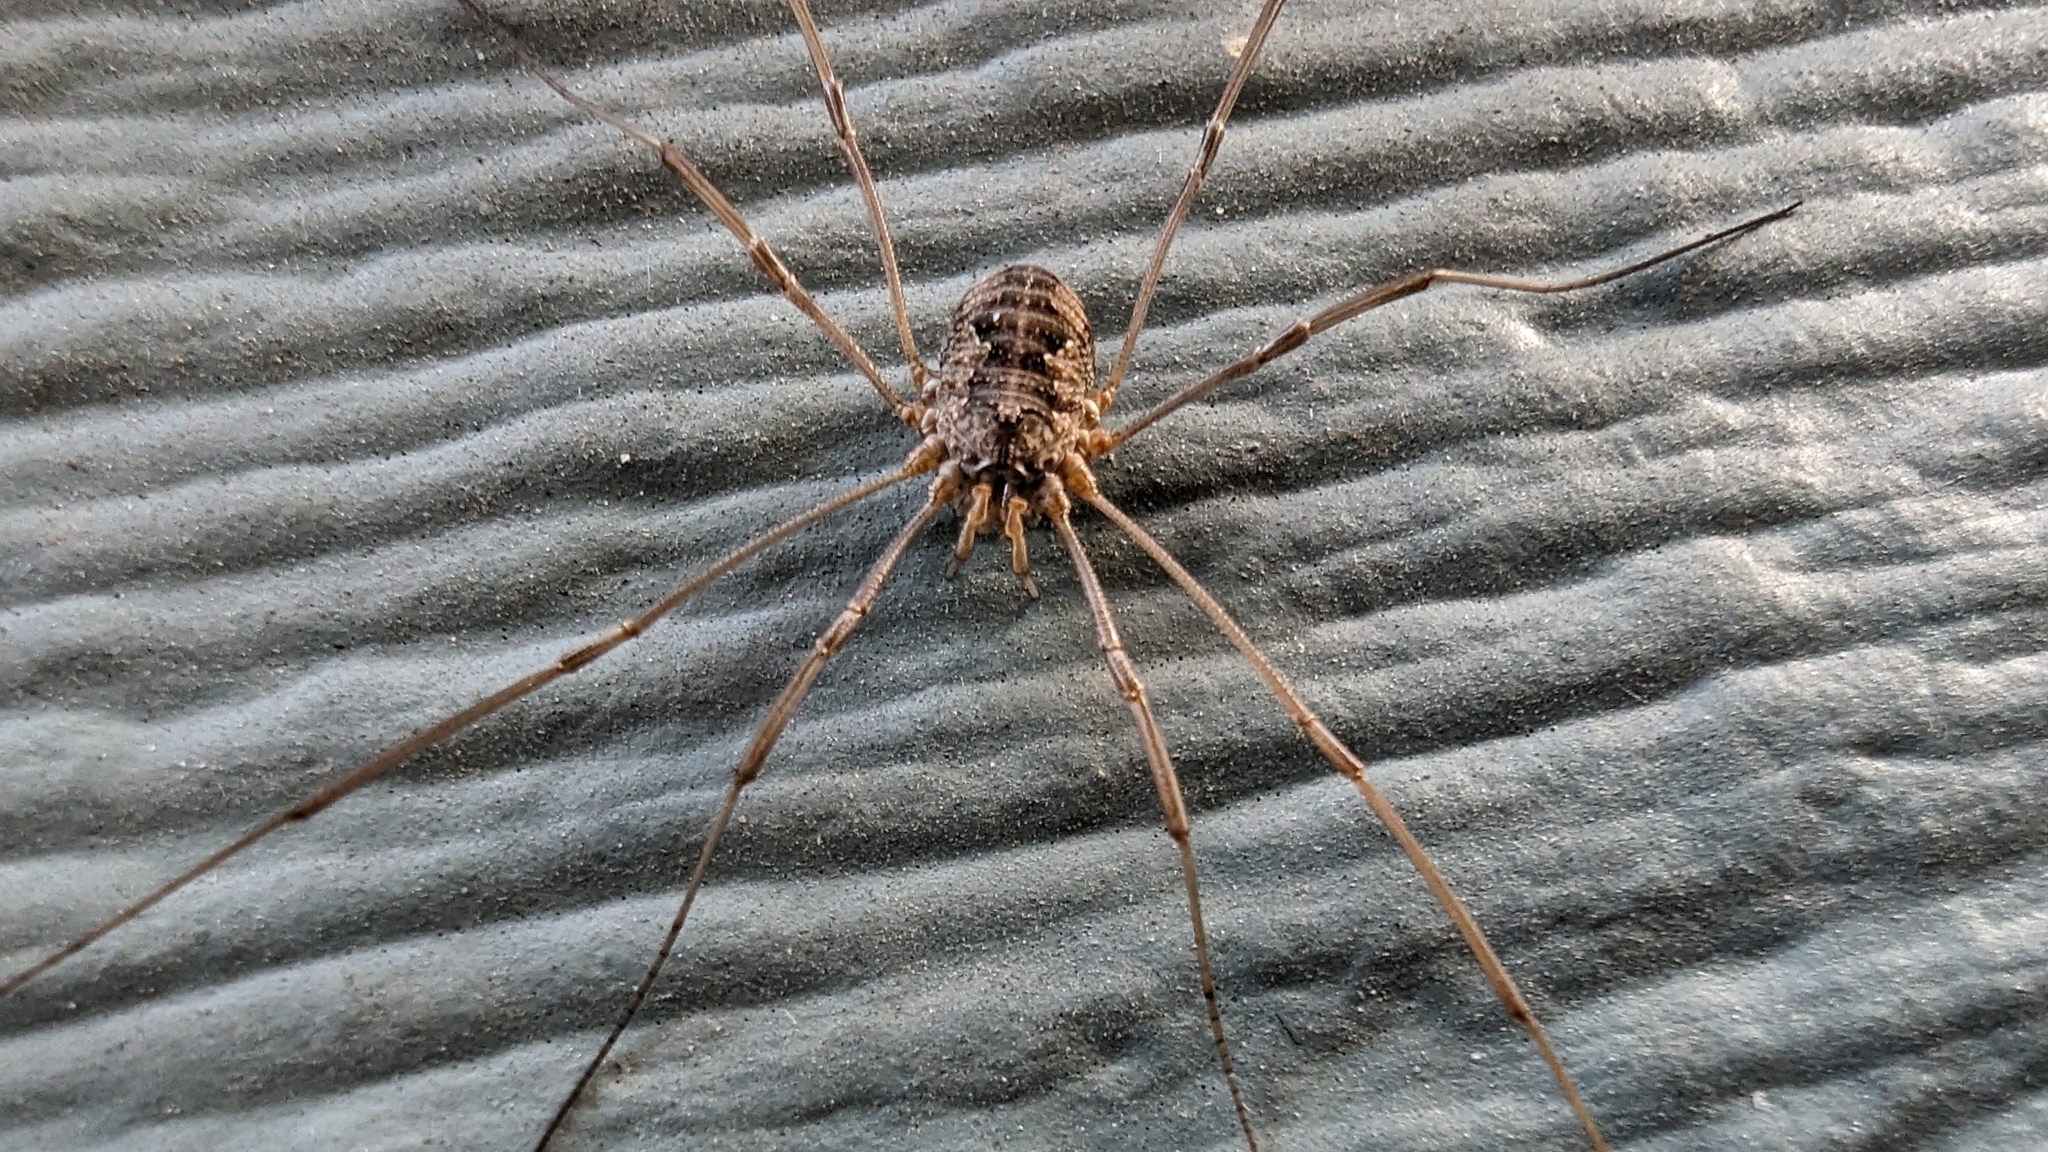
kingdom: Animalia
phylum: Arthropoda
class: Arachnida
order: Opiliones
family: Phalangiidae
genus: Phalangium
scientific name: Phalangium opilio
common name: Daddy longleg
